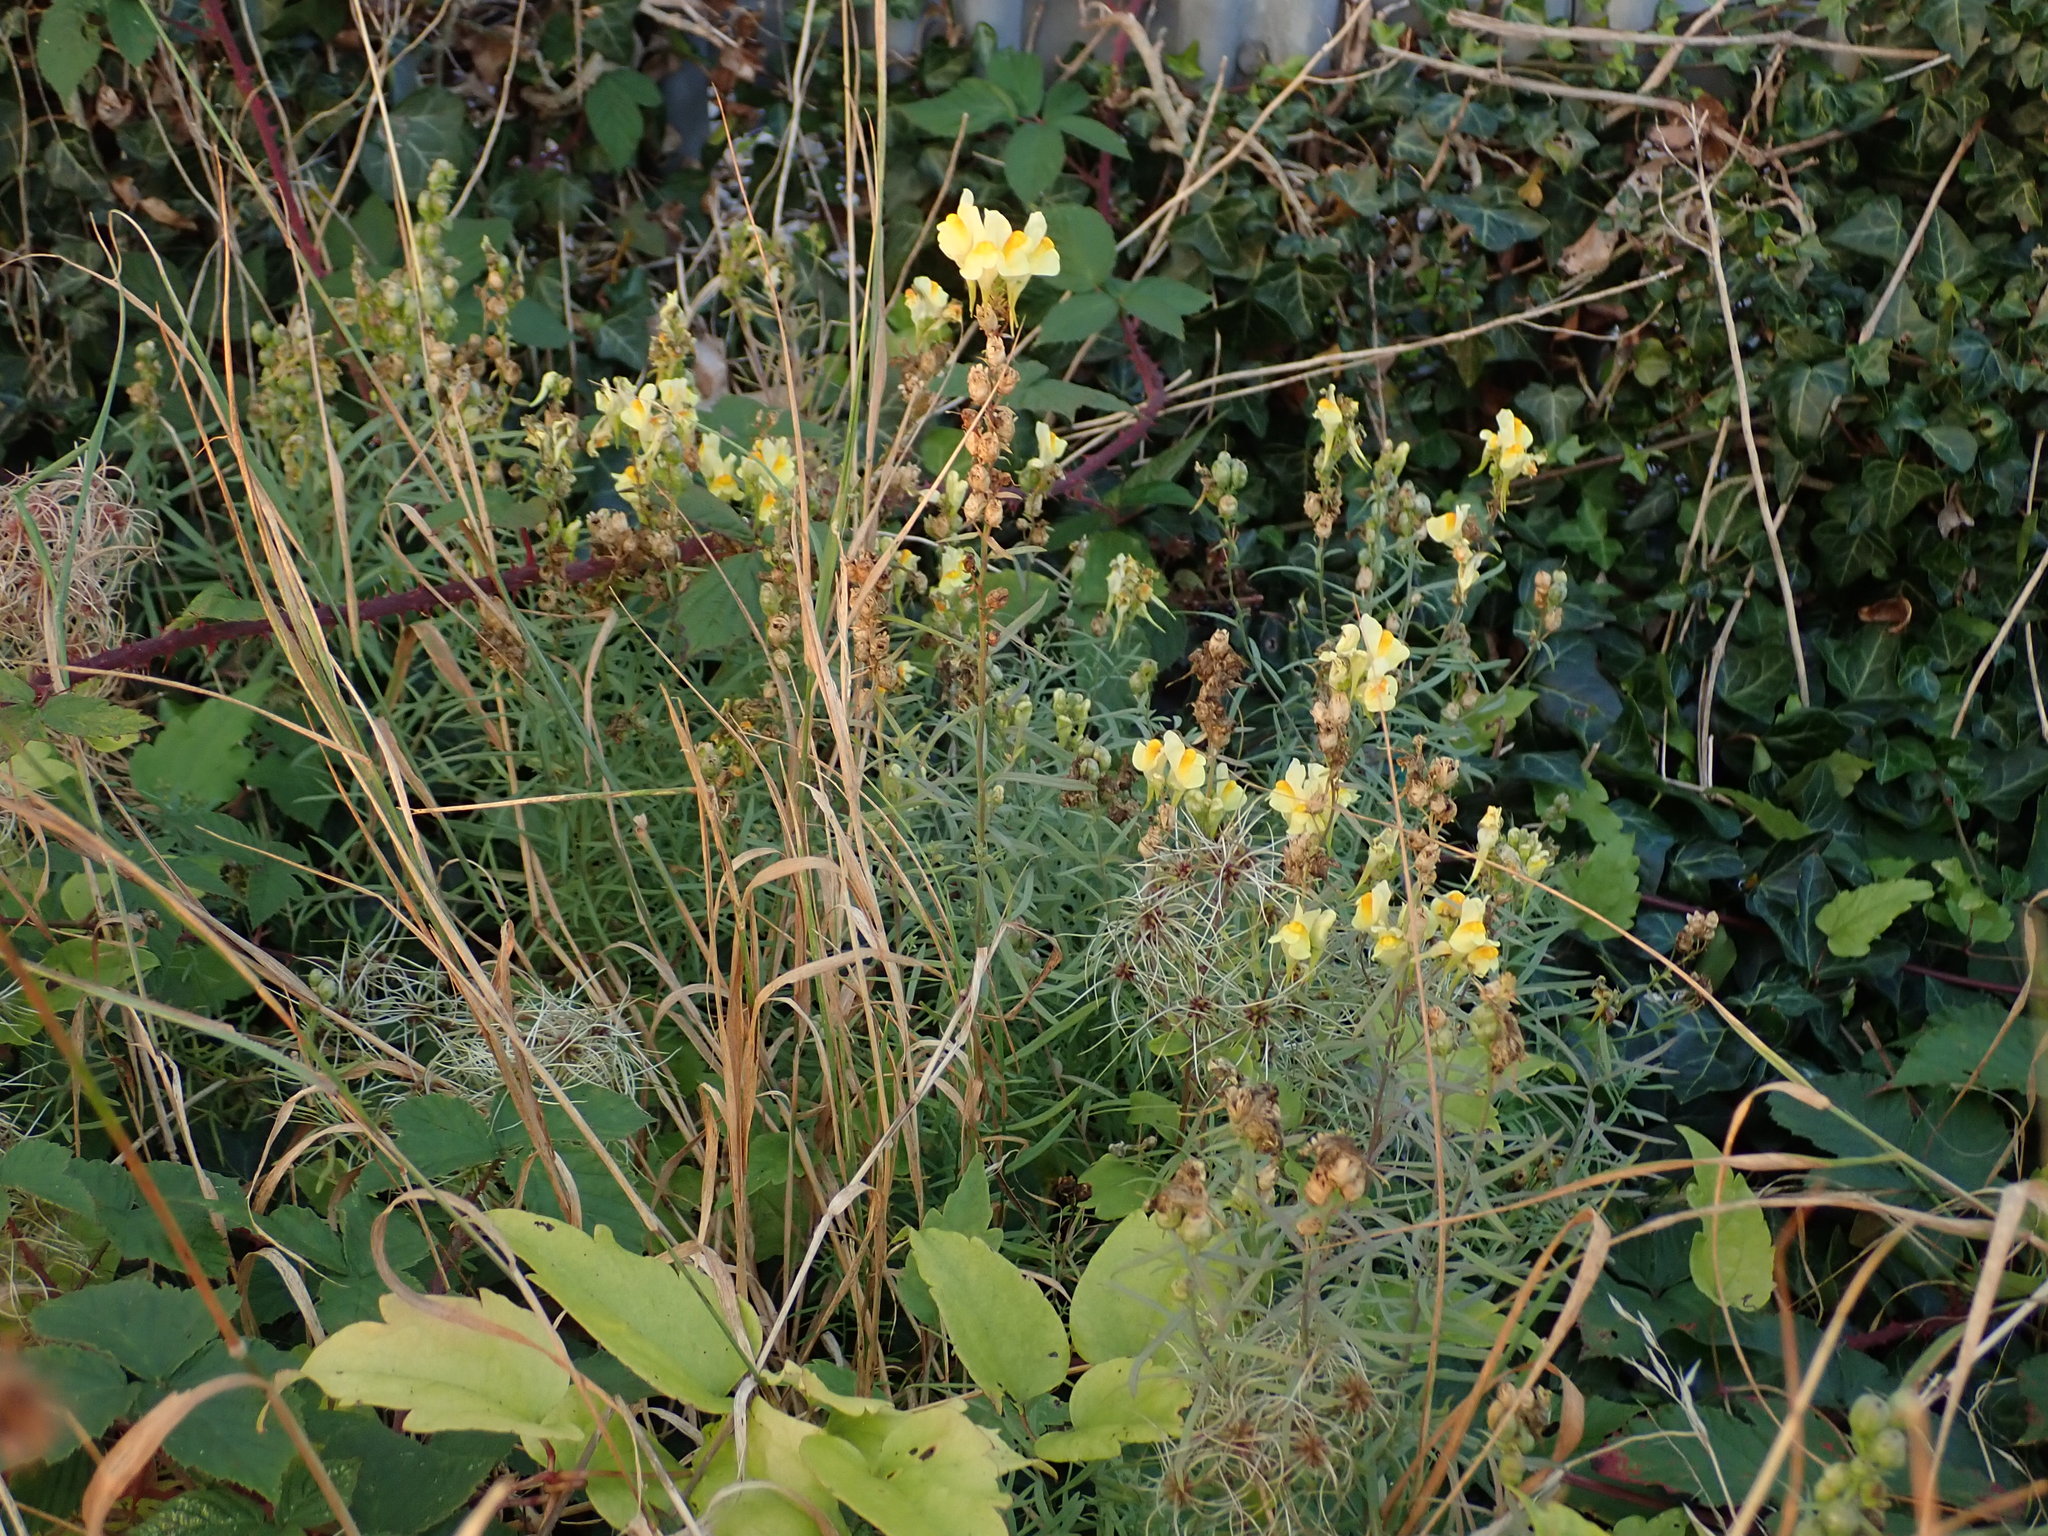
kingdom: Plantae
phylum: Tracheophyta
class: Magnoliopsida
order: Lamiales
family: Plantaginaceae
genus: Linaria
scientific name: Linaria vulgaris
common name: Butter and eggs
